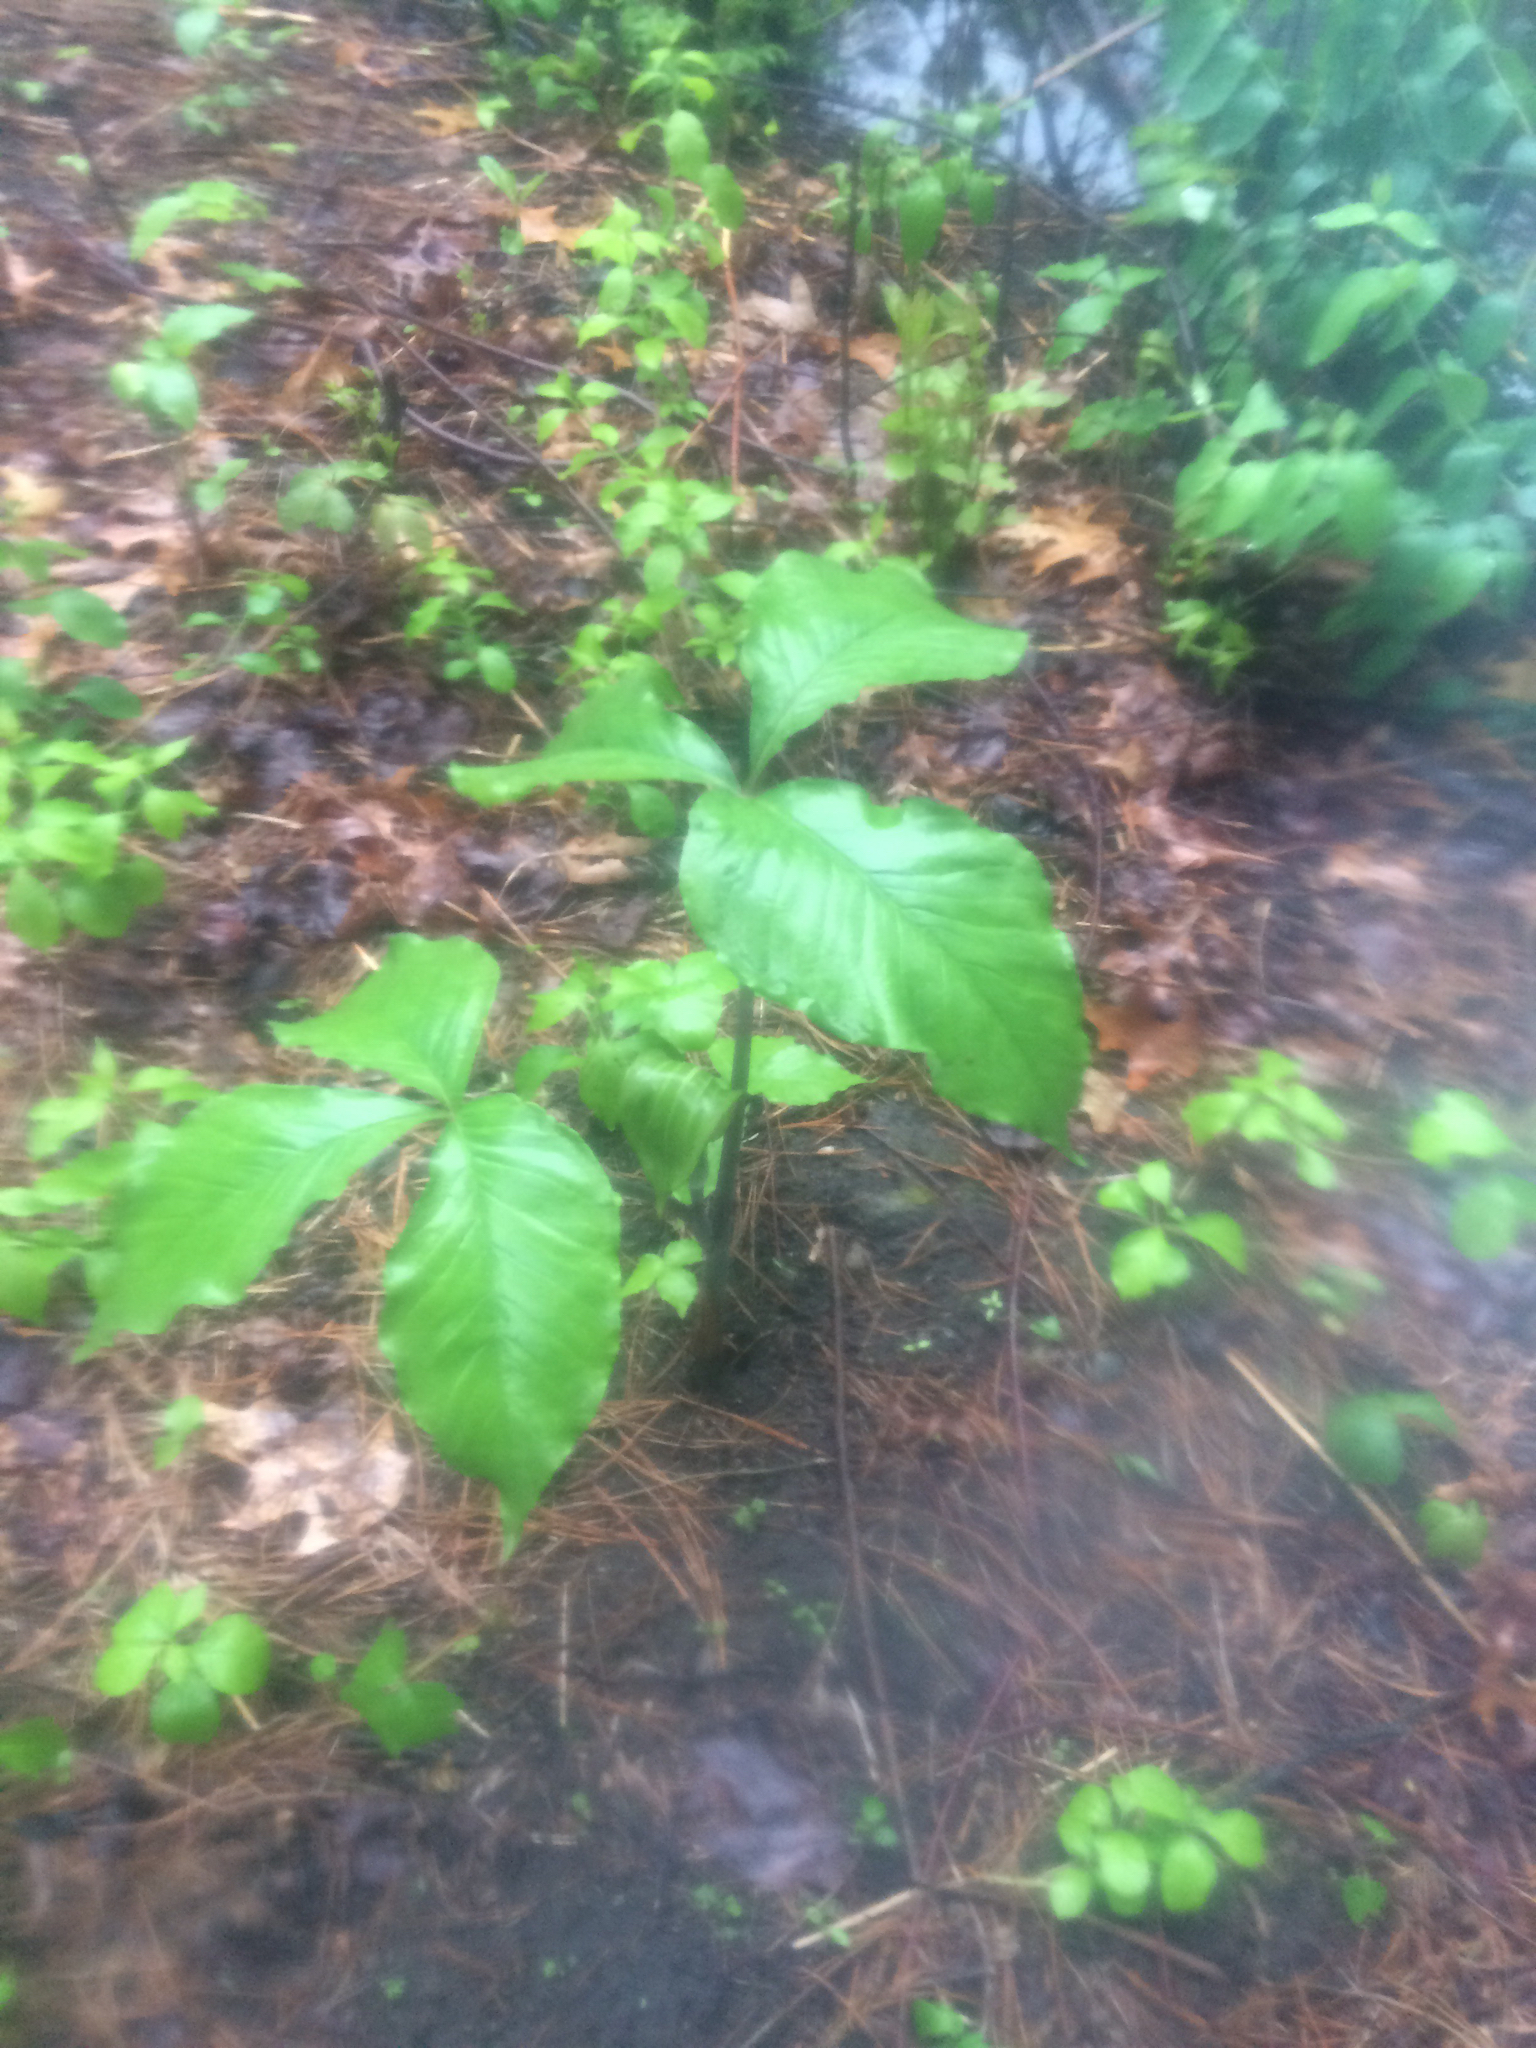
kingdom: Plantae
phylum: Tracheophyta
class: Liliopsida
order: Alismatales
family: Araceae
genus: Arisaema
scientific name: Arisaema triphyllum
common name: Jack-in-the-pulpit
